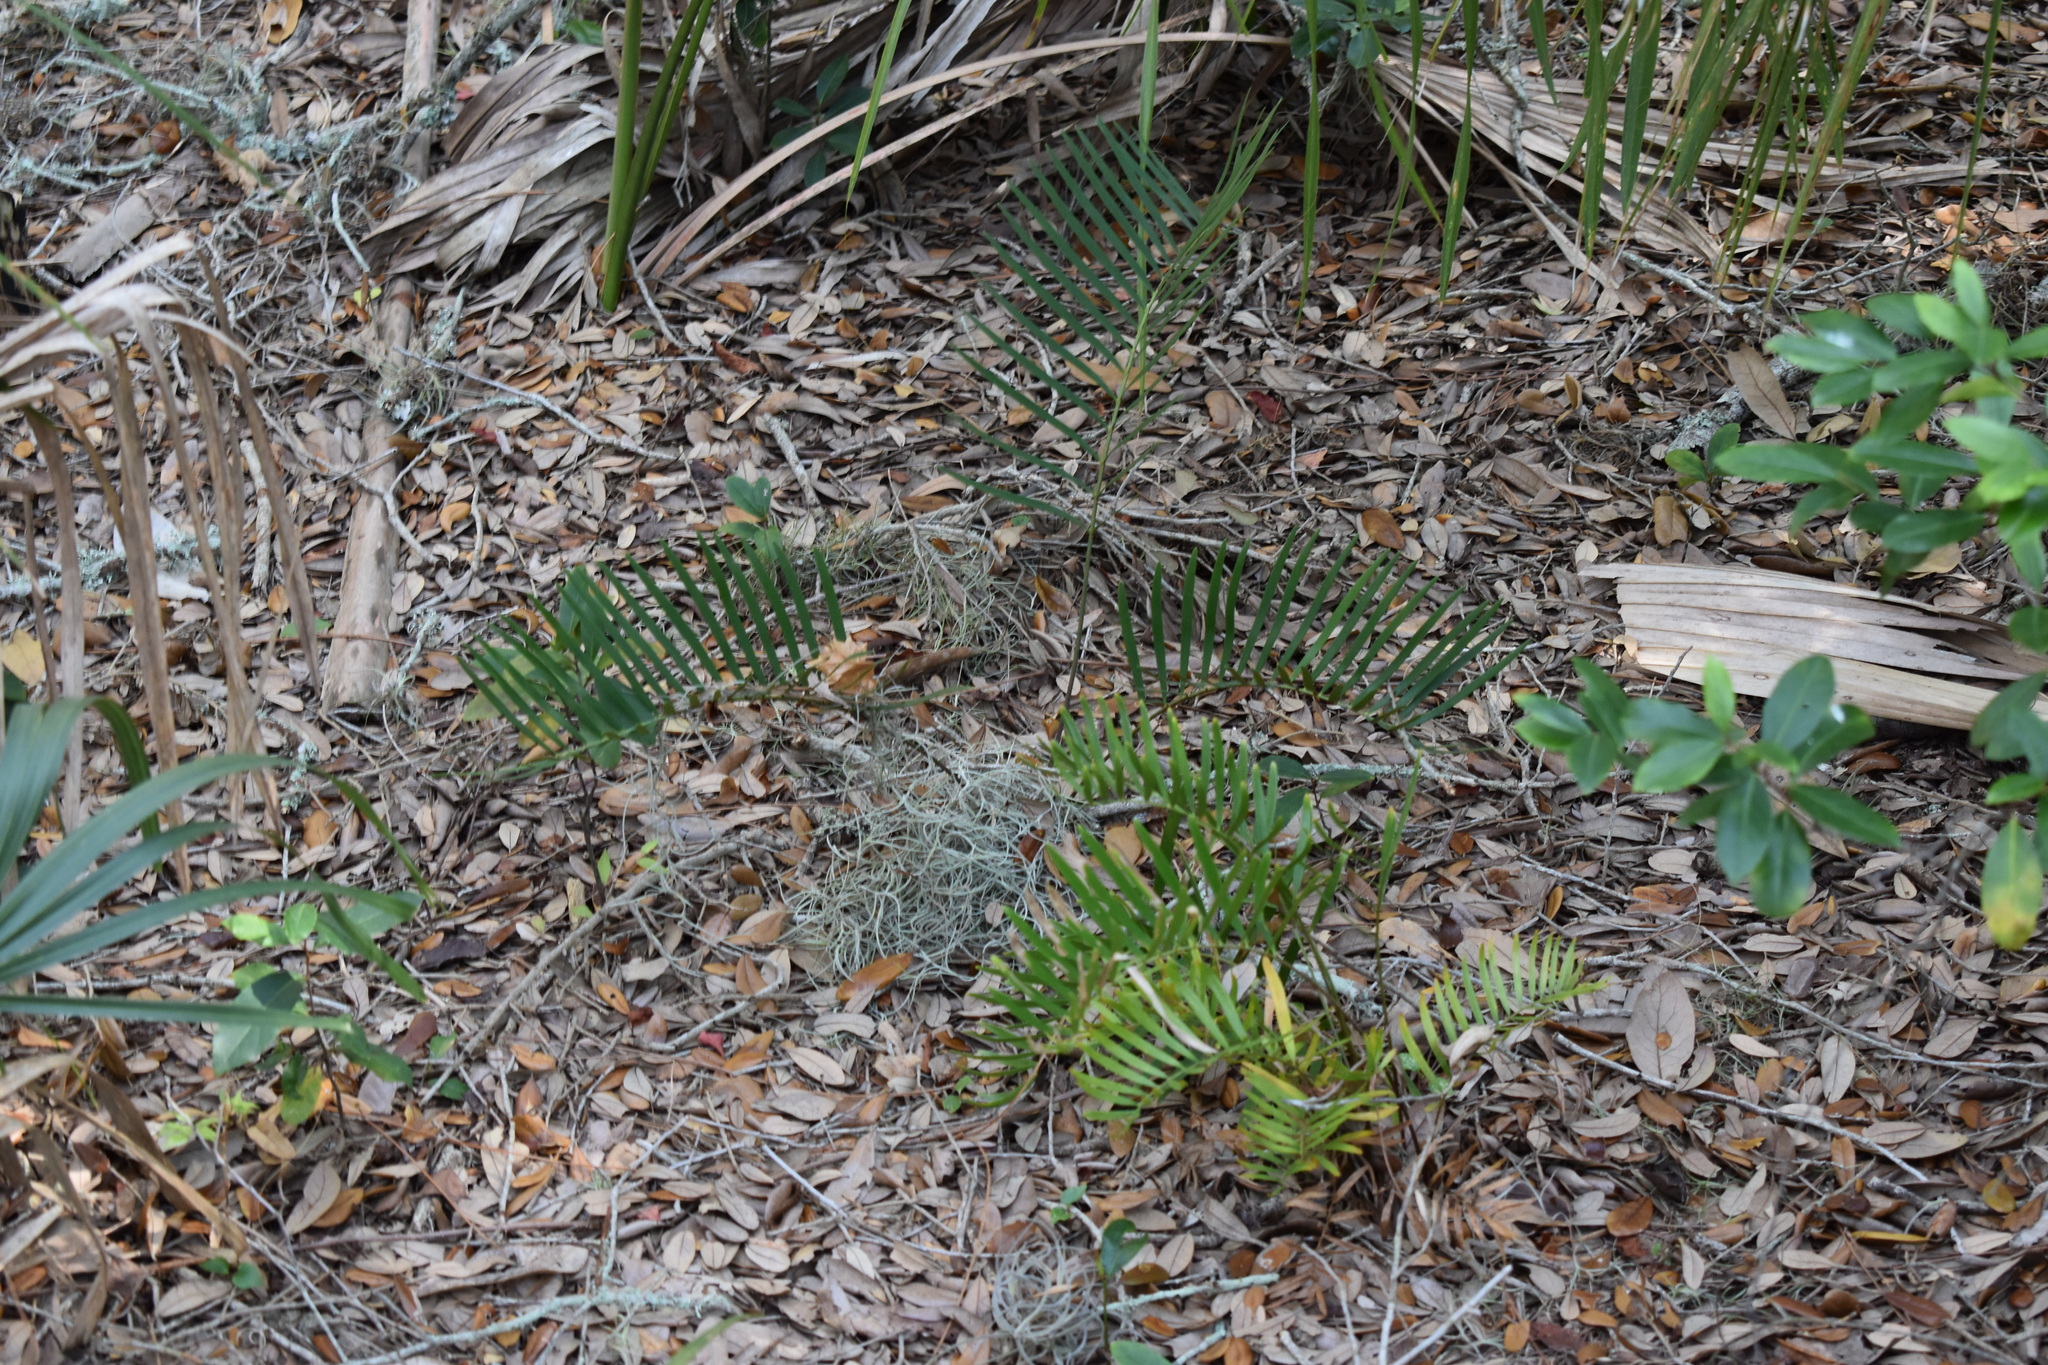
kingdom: Plantae
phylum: Tracheophyta
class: Cycadopsida
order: Cycadales
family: Zamiaceae
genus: Zamia
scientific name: Zamia integrifolia
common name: Florida arrowroot
